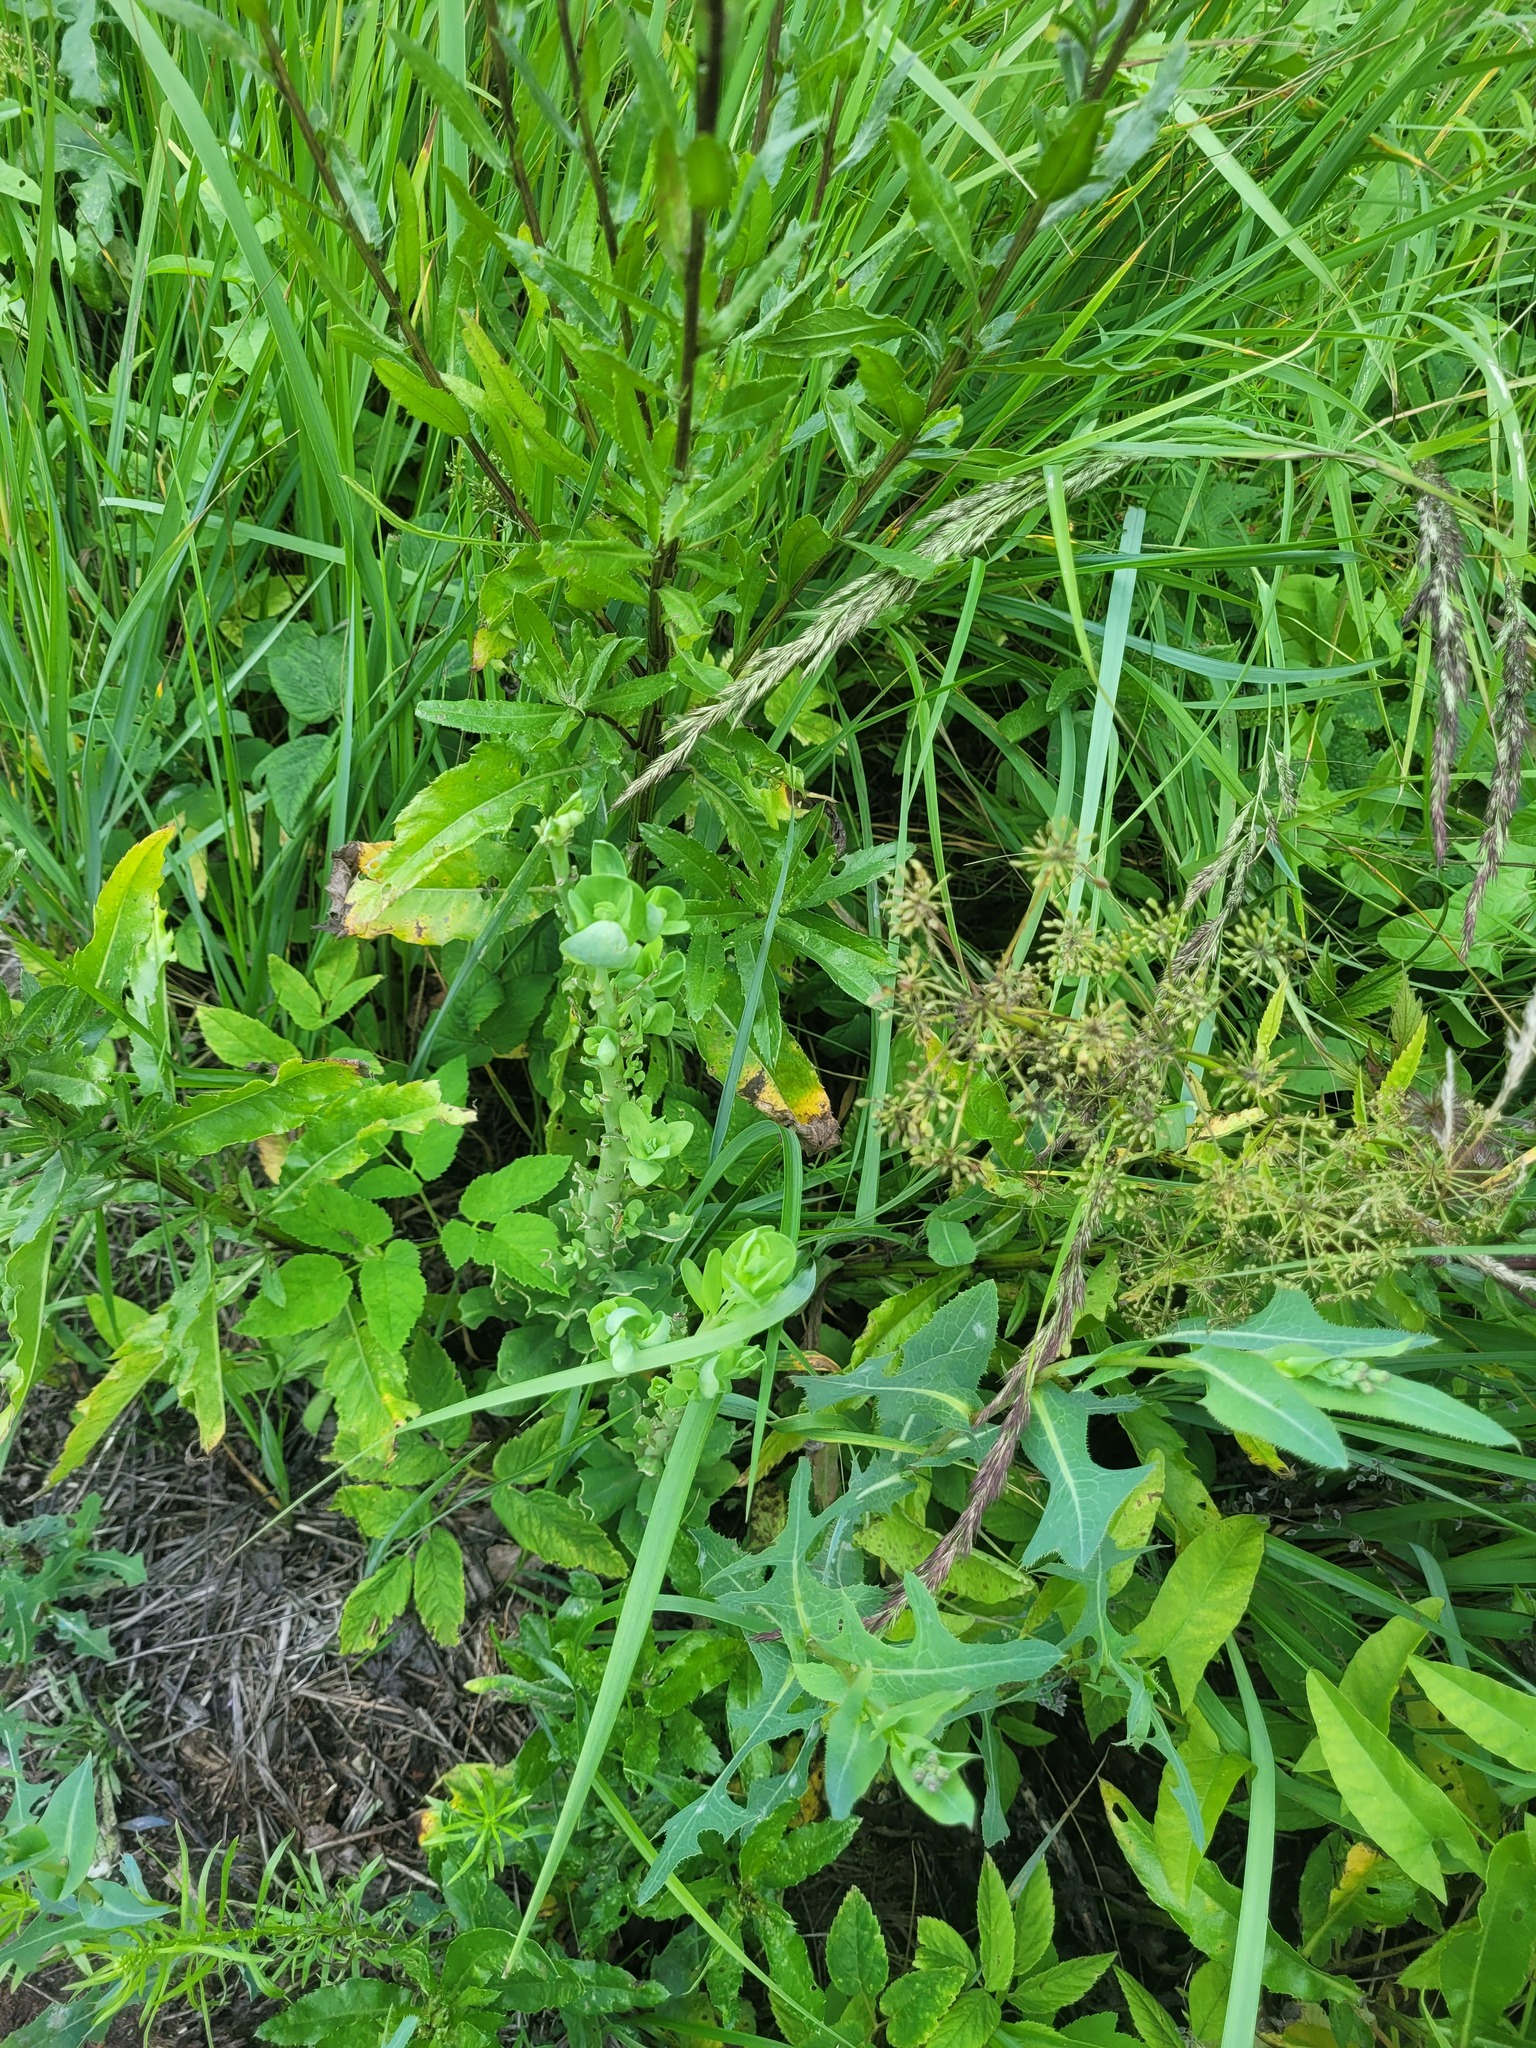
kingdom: Plantae
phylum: Tracheophyta
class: Magnoliopsida
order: Saxifragales
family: Crassulaceae
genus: Hylotelephium
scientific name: Hylotelephium telephium
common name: Live-forever
